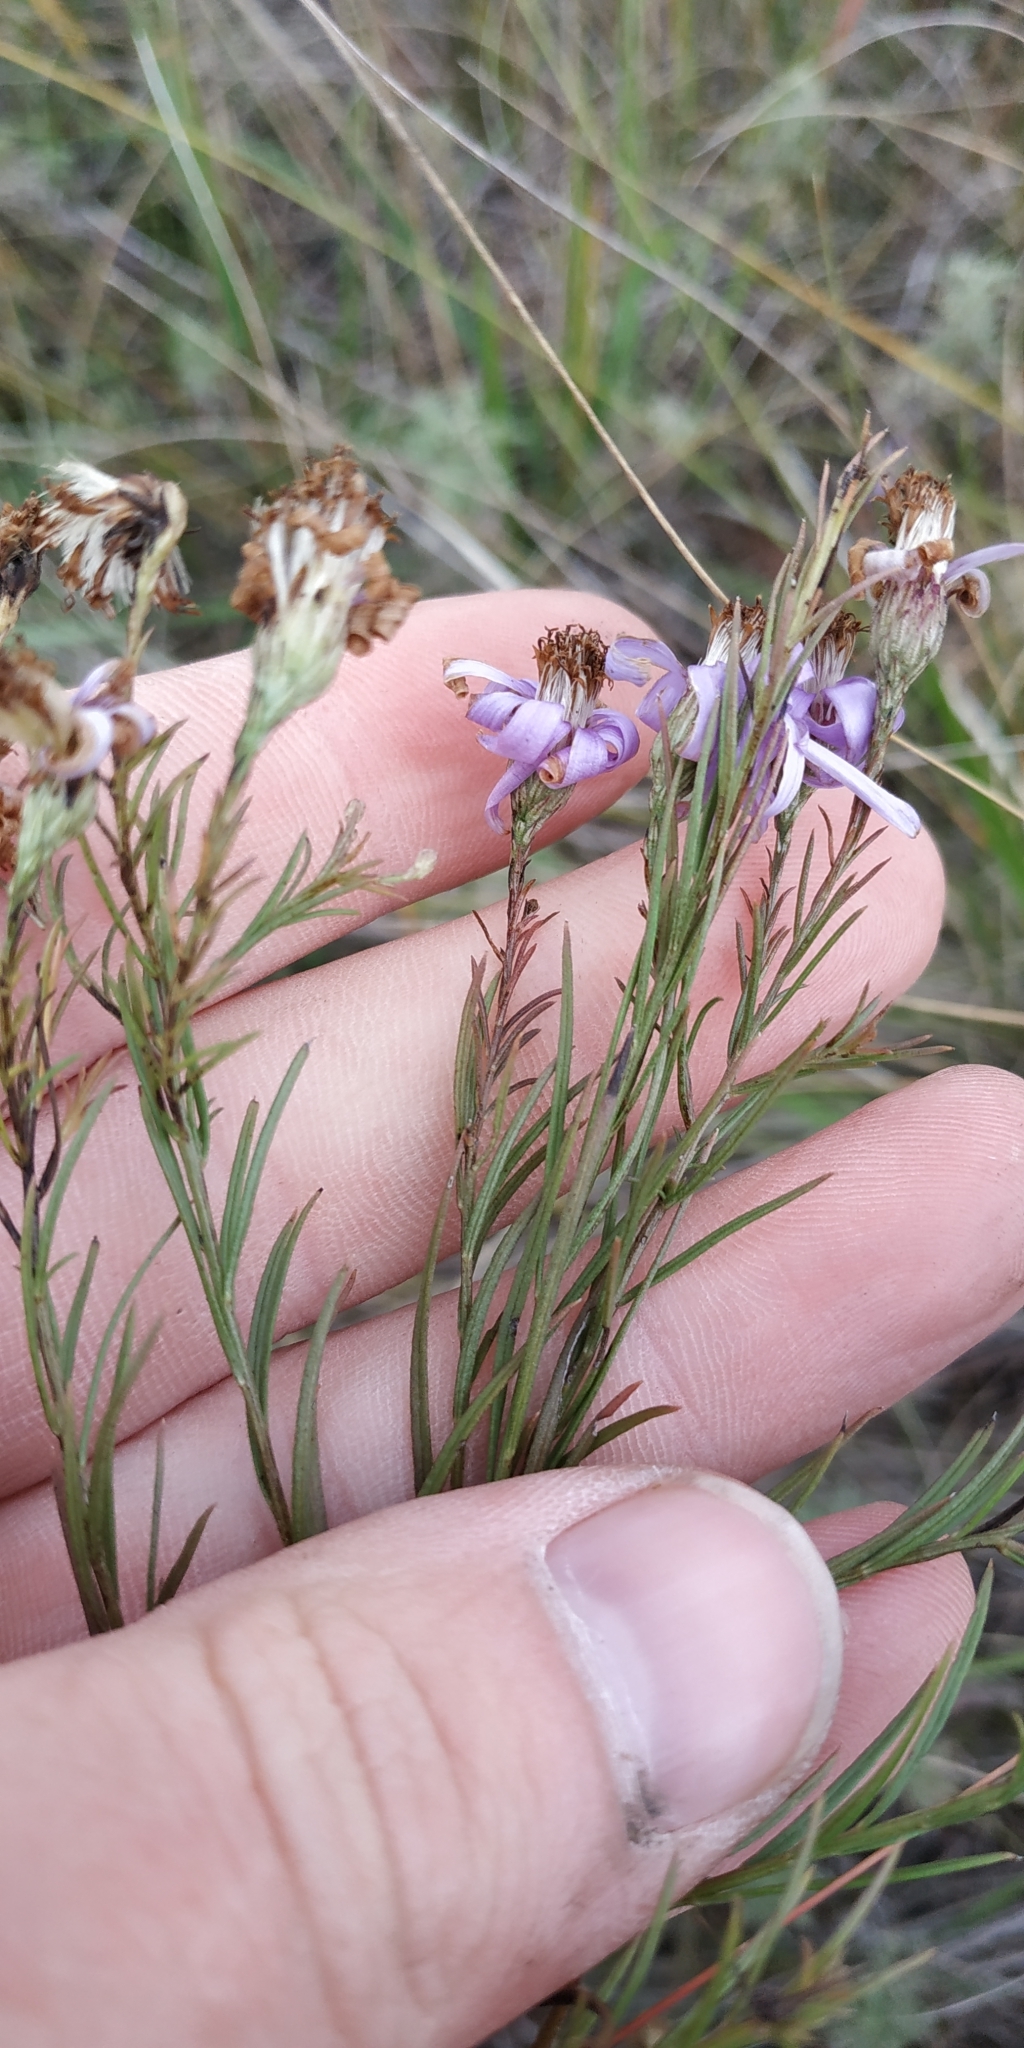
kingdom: Plantae
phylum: Tracheophyta
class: Magnoliopsida
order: Asterales
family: Asteraceae
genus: Galatella
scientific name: Galatella angustissima
